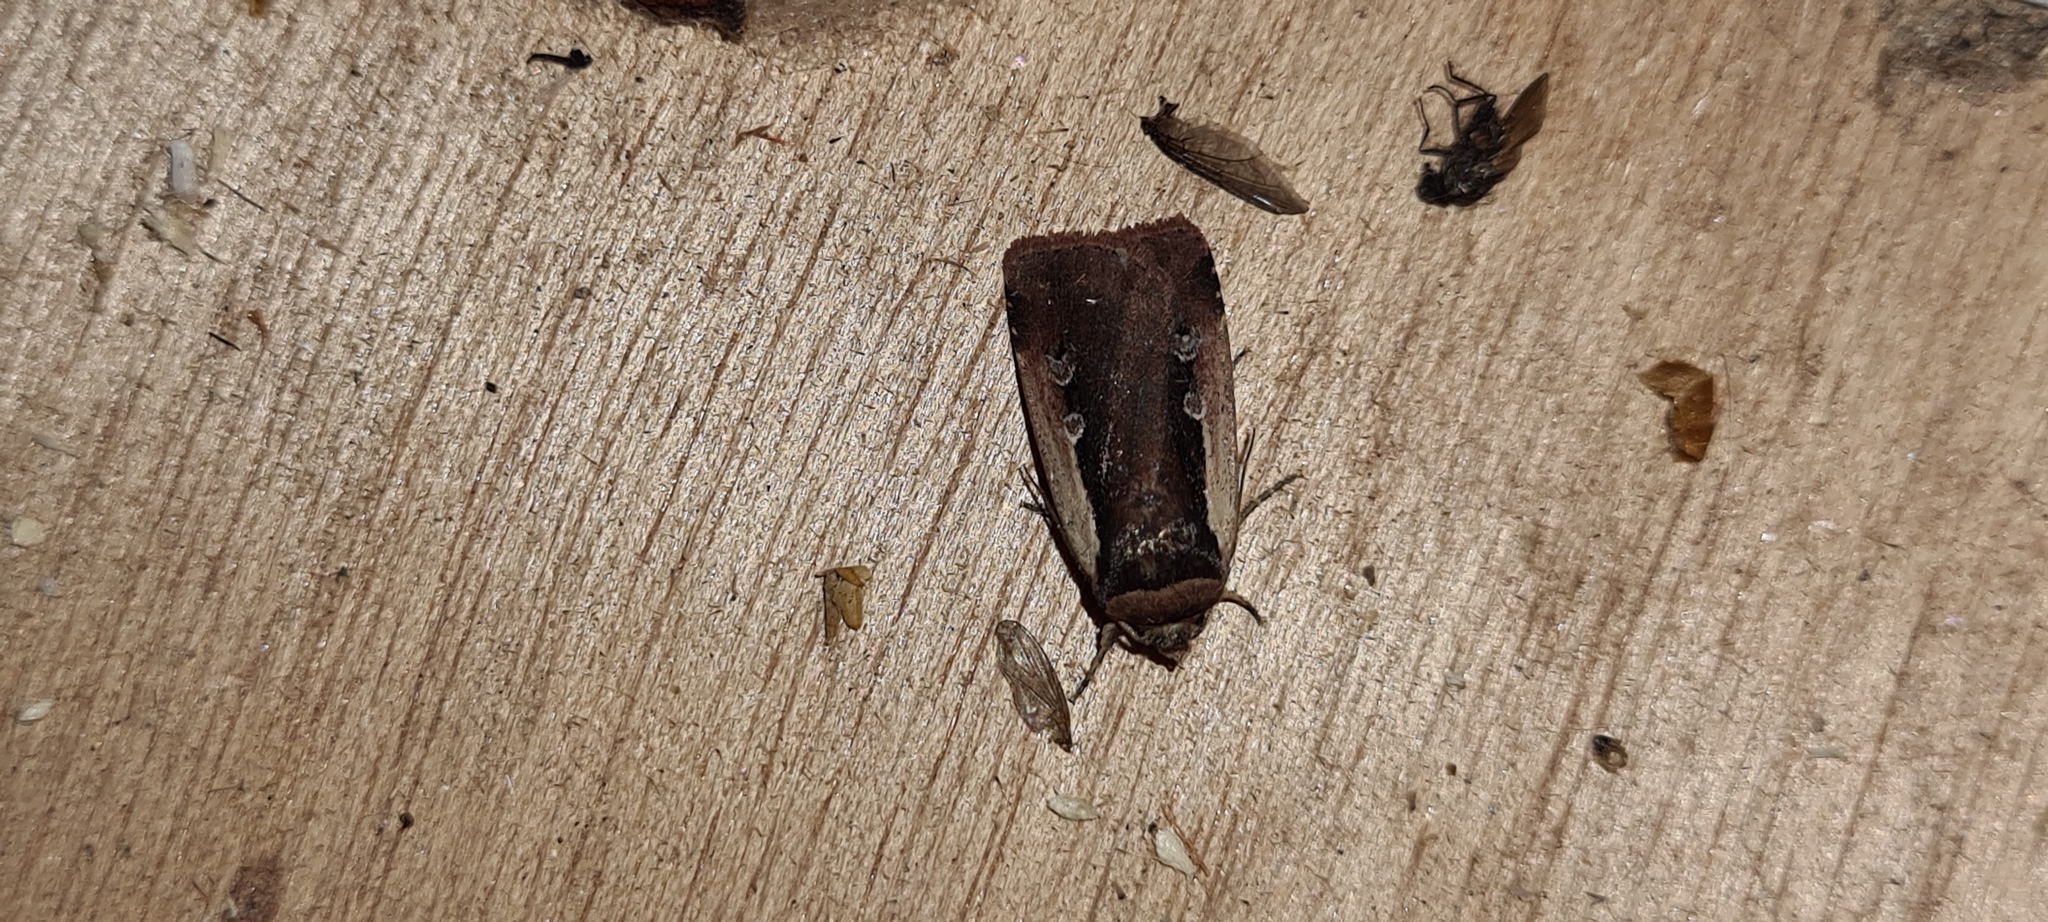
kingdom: Animalia
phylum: Arthropoda
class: Insecta
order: Lepidoptera
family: Noctuidae
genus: Ochropleura
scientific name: Ochropleura plecta
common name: Flame shoulder
